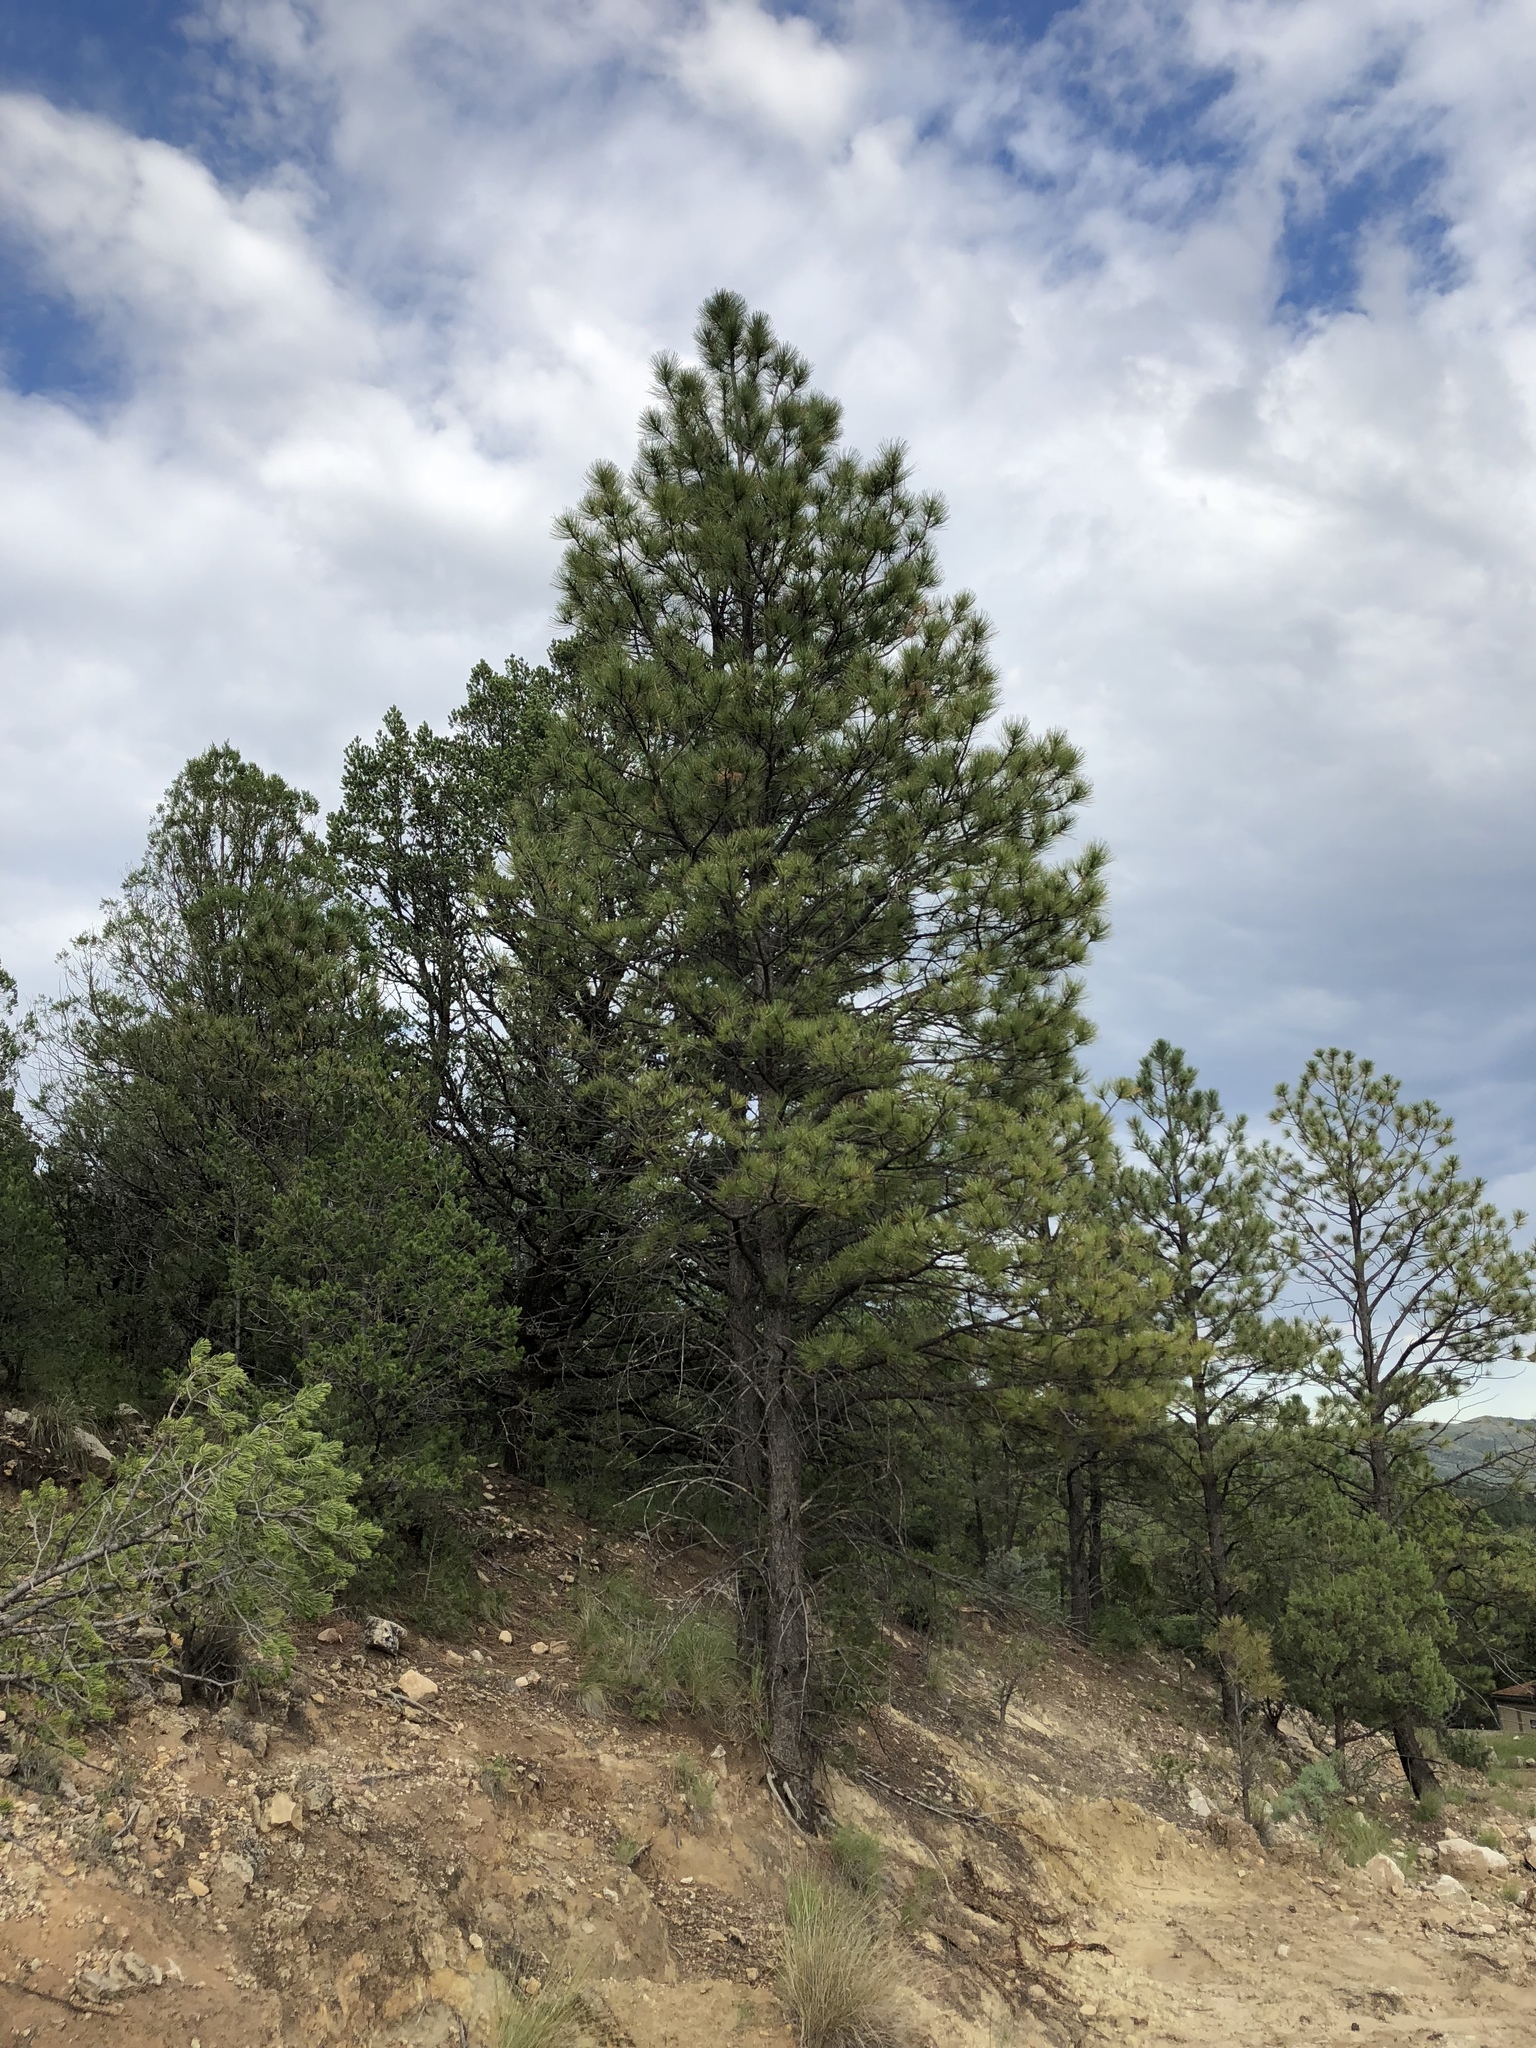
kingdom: Plantae
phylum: Tracheophyta
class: Pinopsida
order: Pinales
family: Pinaceae
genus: Pinus
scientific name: Pinus ponderosa
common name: Western yellow-pine
